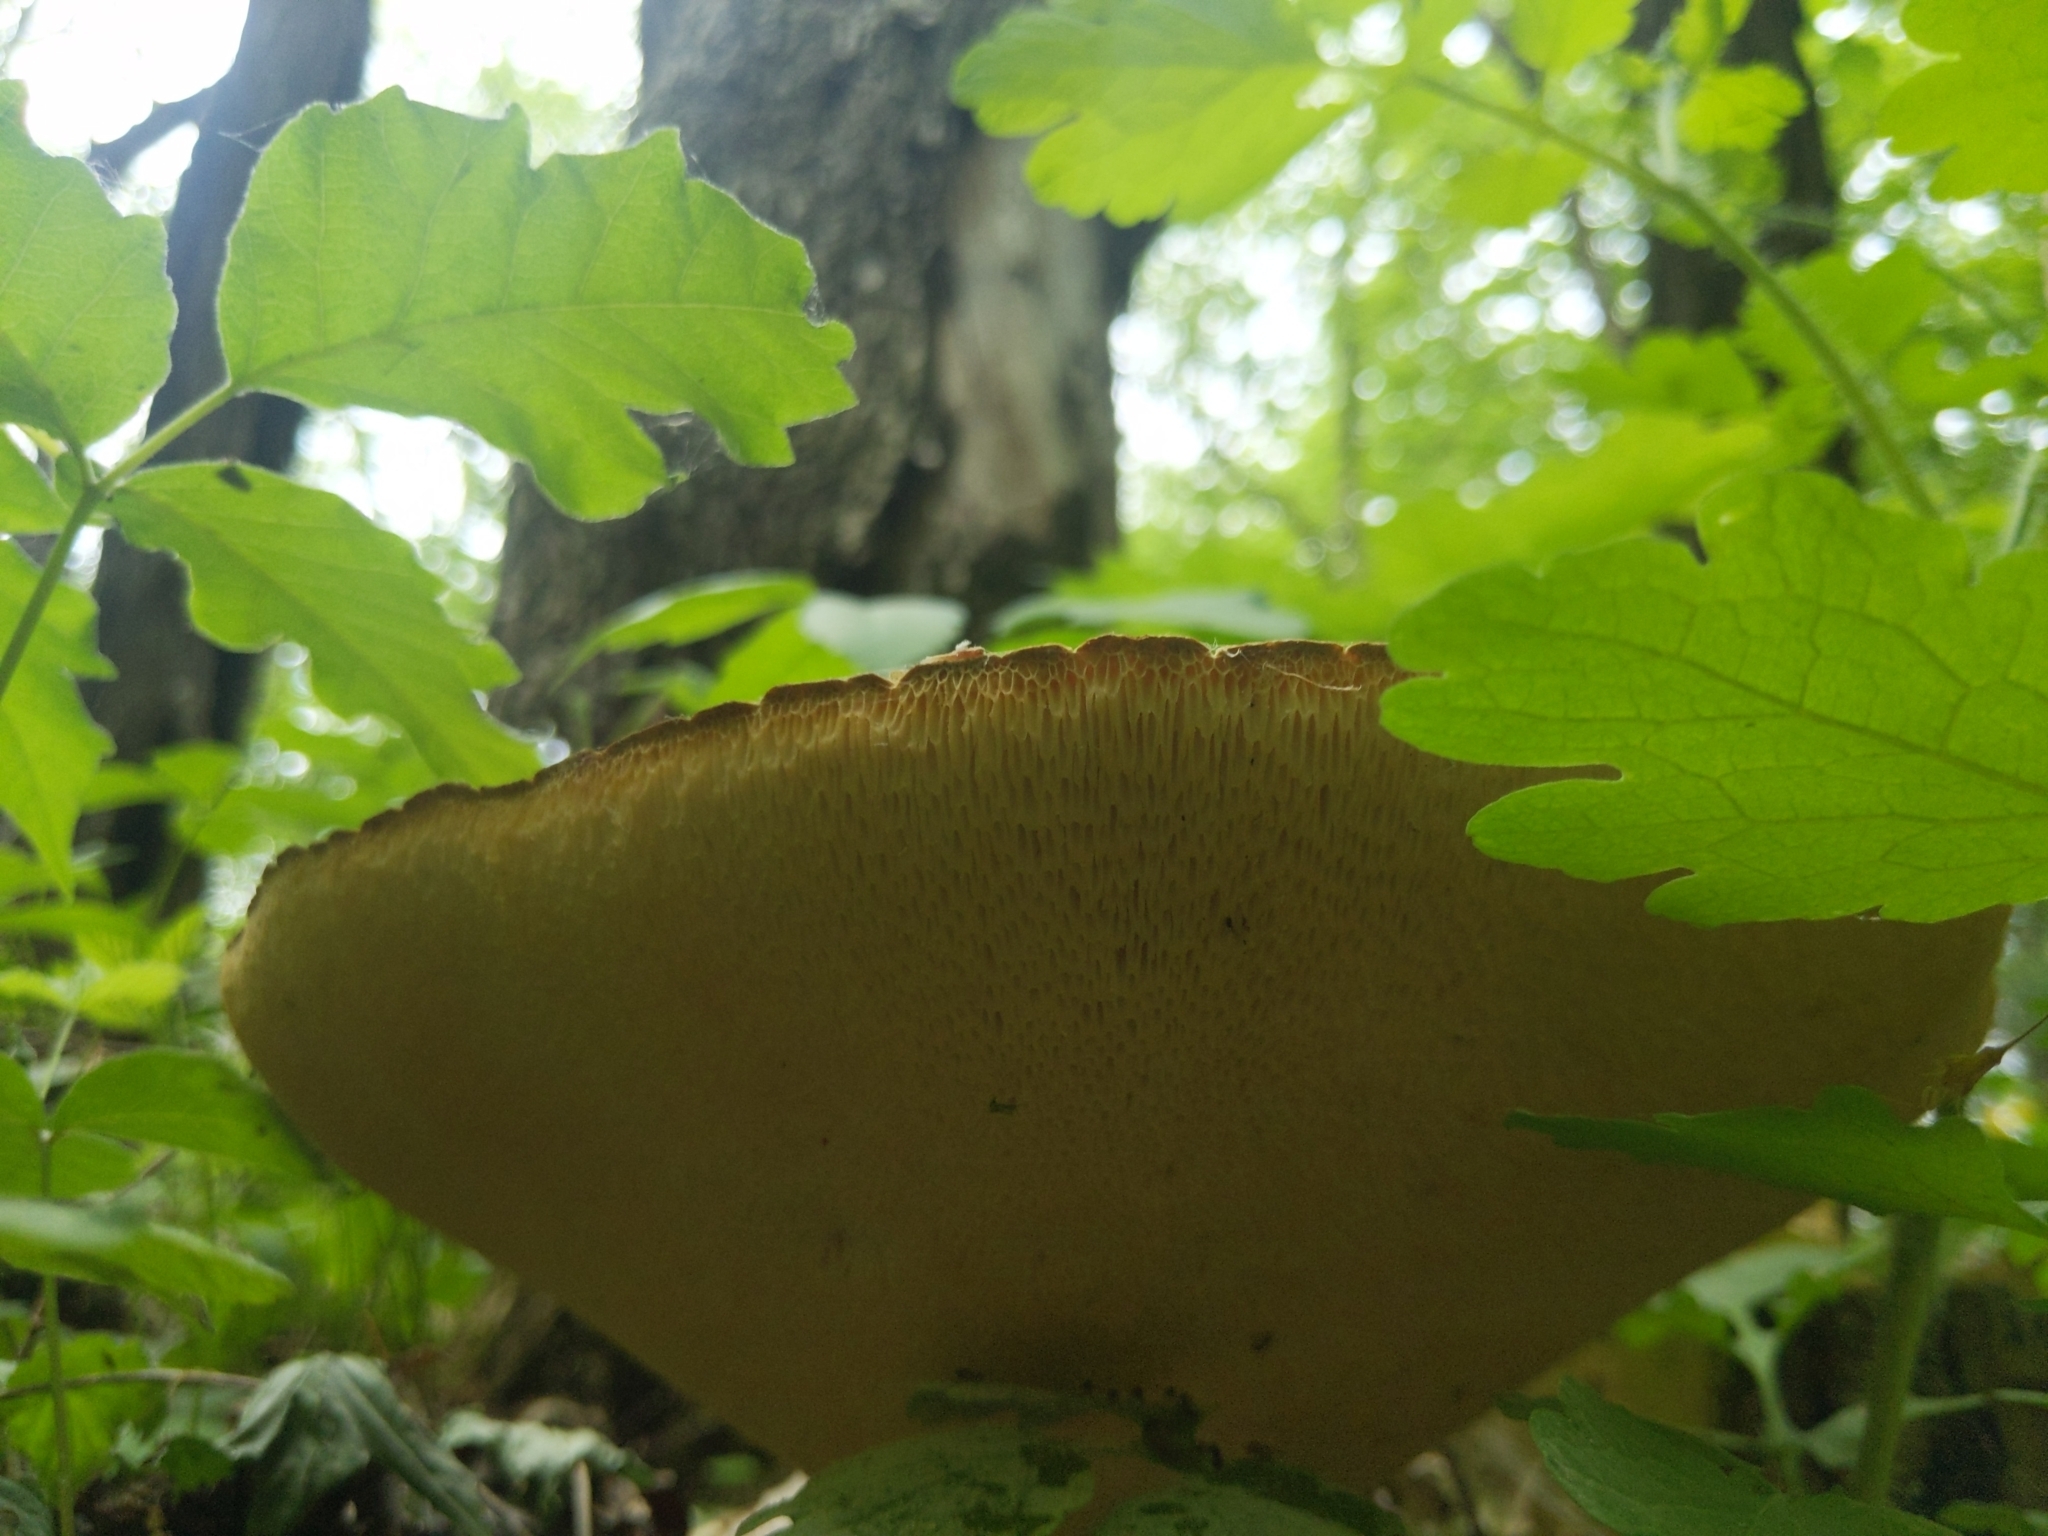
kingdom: Fungi
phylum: Basidiomycota
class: Agaricomycetes
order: Polyporales
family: Polyporaceae
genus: Cerioporus
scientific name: Cerioporus squamosus
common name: Dryad's saddle
